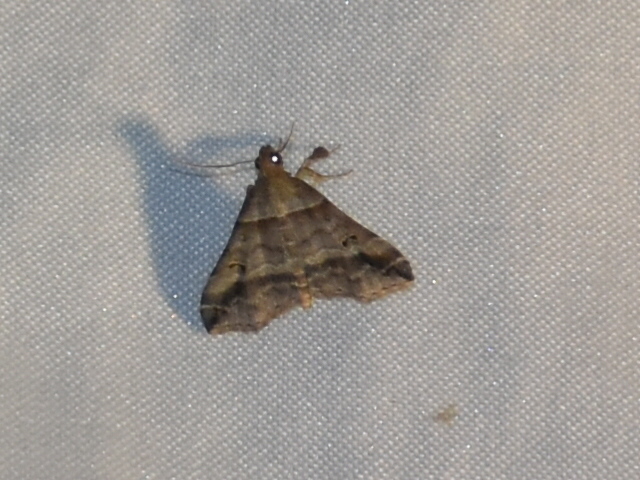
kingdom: Animalia
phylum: Arthropoda
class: Insecta
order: Lepidoptera
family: Erebidae
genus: Phaeolita
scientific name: Phaeolita pyramusalis
